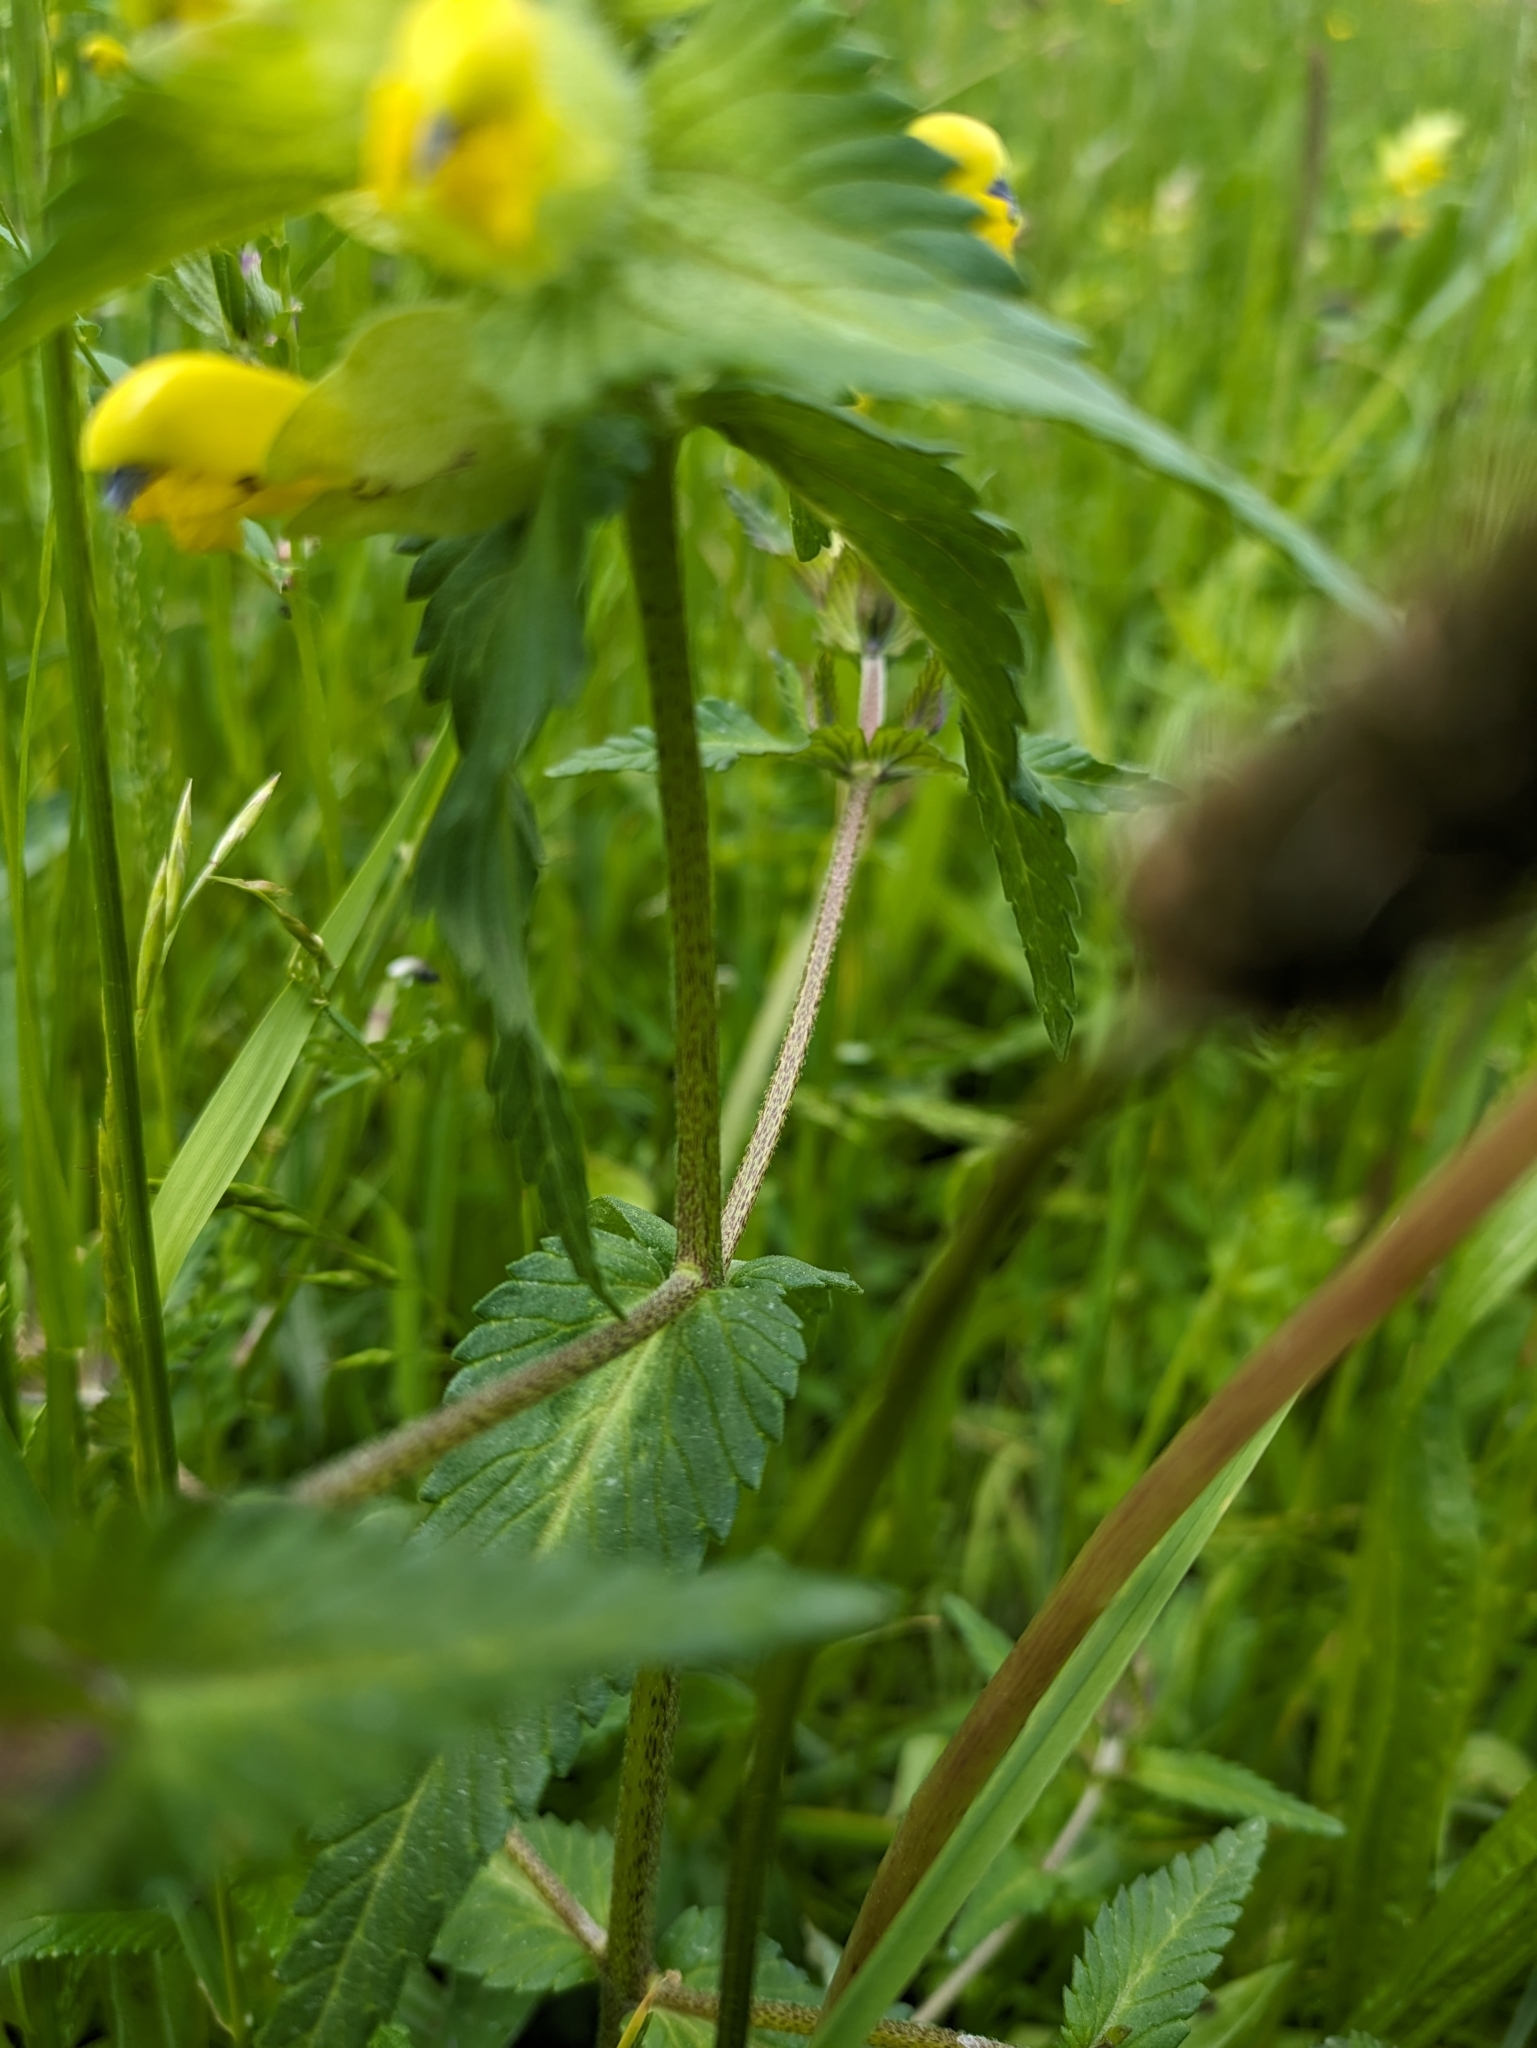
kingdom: Plantae
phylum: Tracheophyta
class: Magnoliopsida
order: Lamiales
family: Orobanchaceae
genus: Rhinanthus
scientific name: Rhinanthus alectorolophus
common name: Greater yellow-rattle
